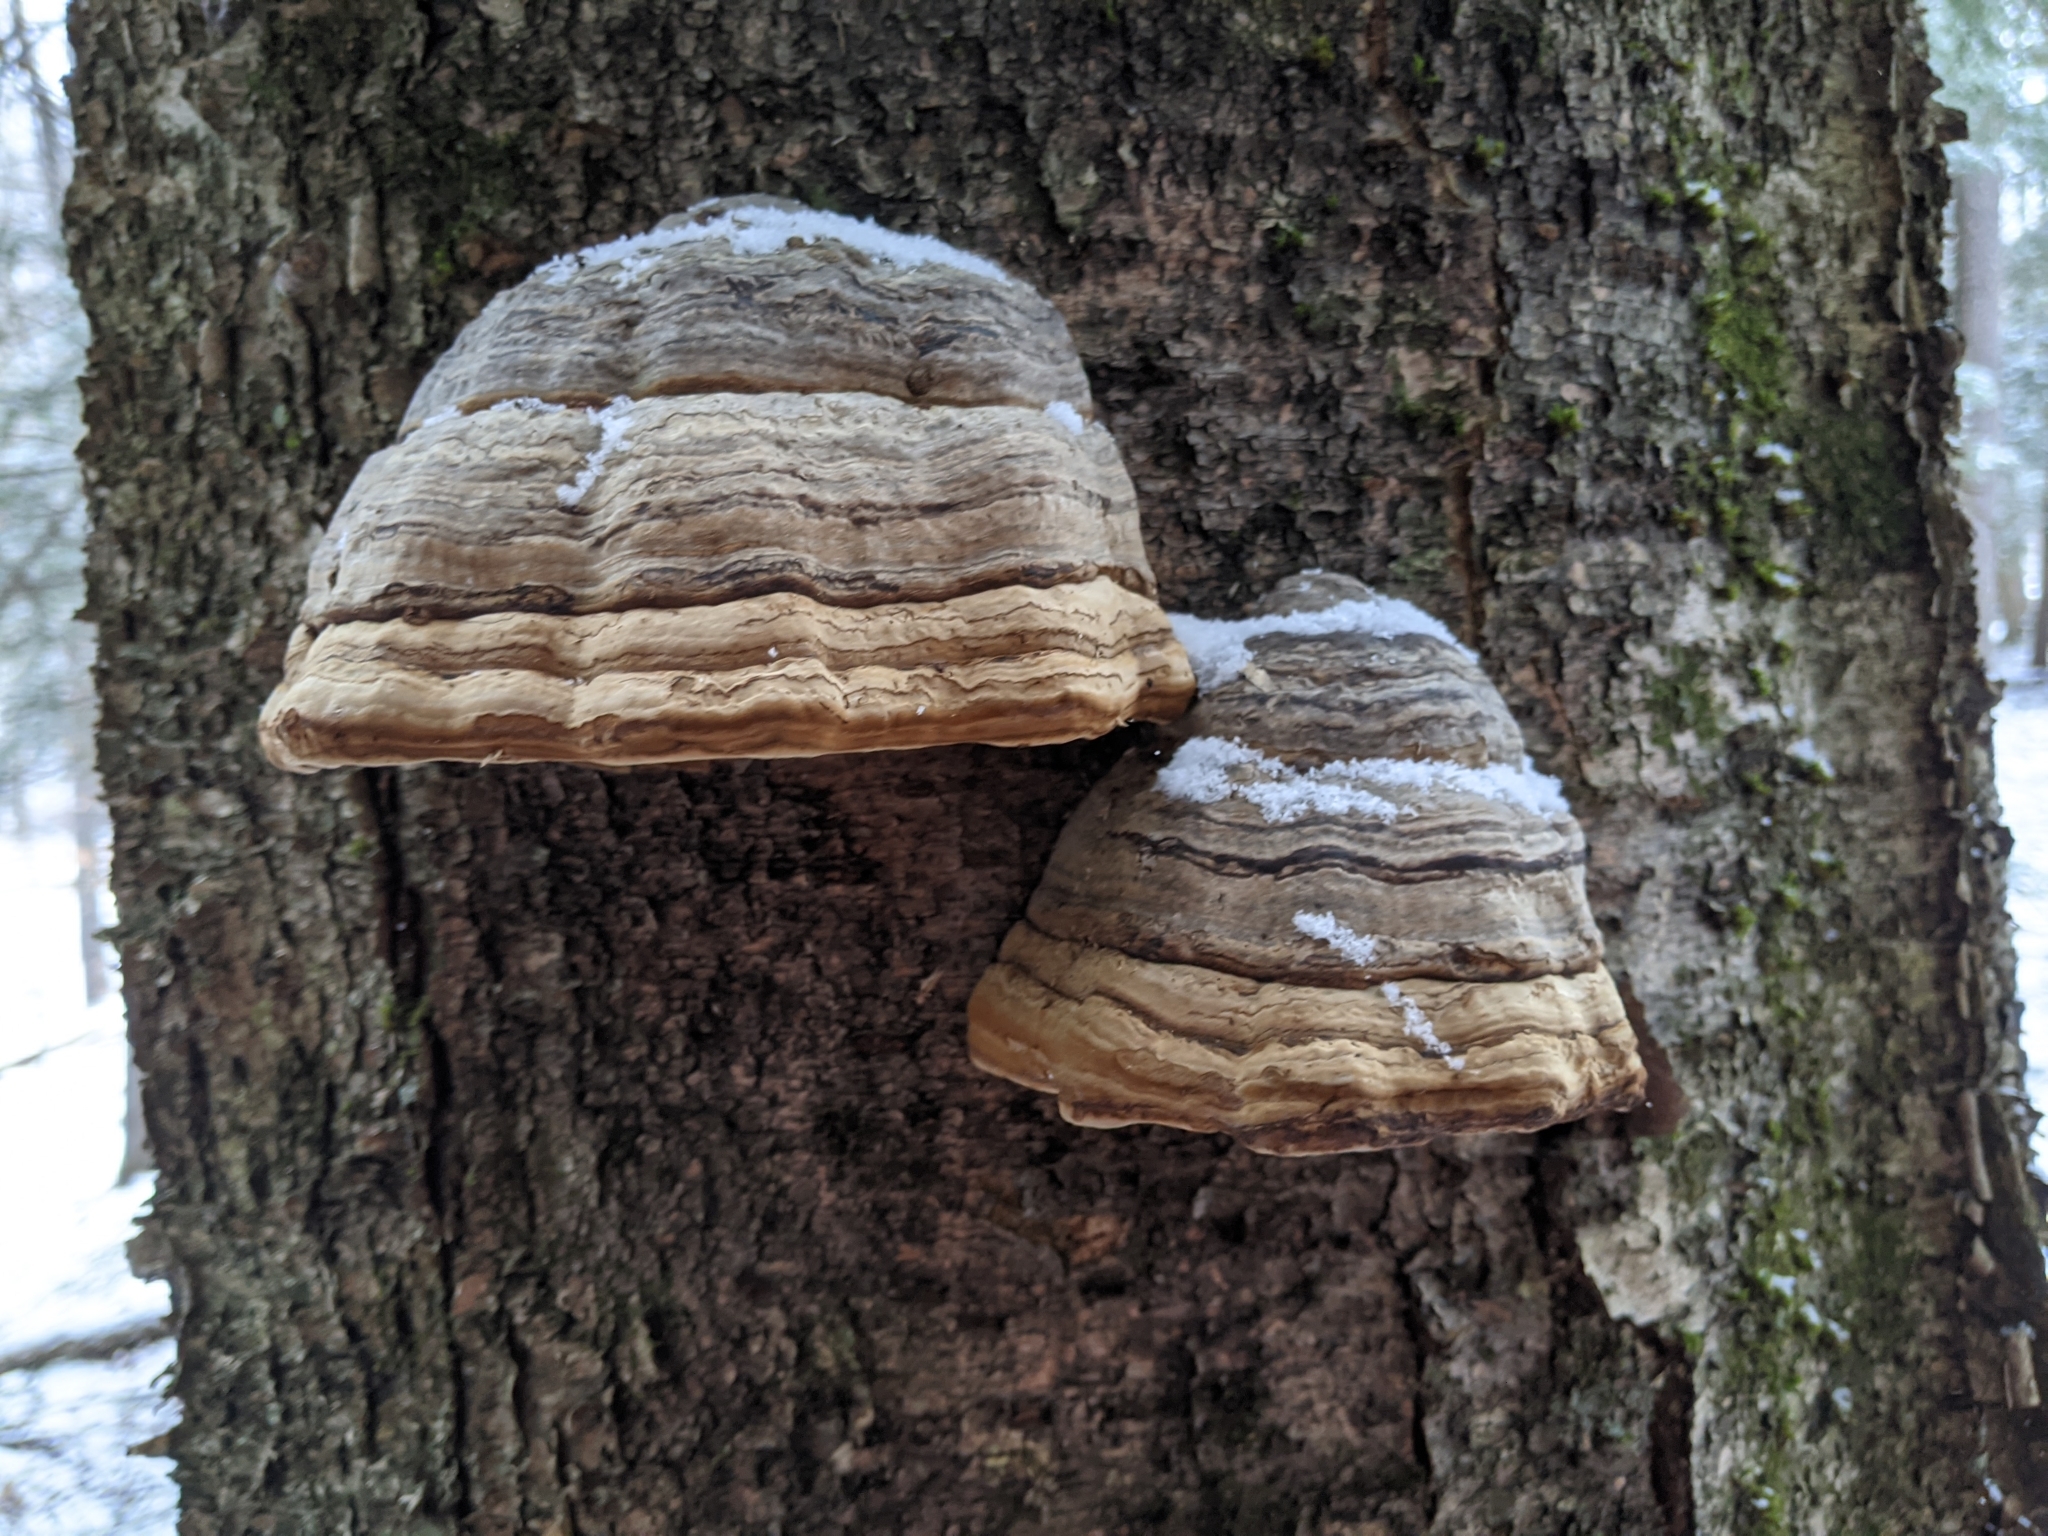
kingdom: Fungi
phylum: Basidiomycota
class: Agaricomycetes
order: Polyporales
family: Polyporaceae
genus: Fomes
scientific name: Fomes fomentarius
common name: Hoof fungus
